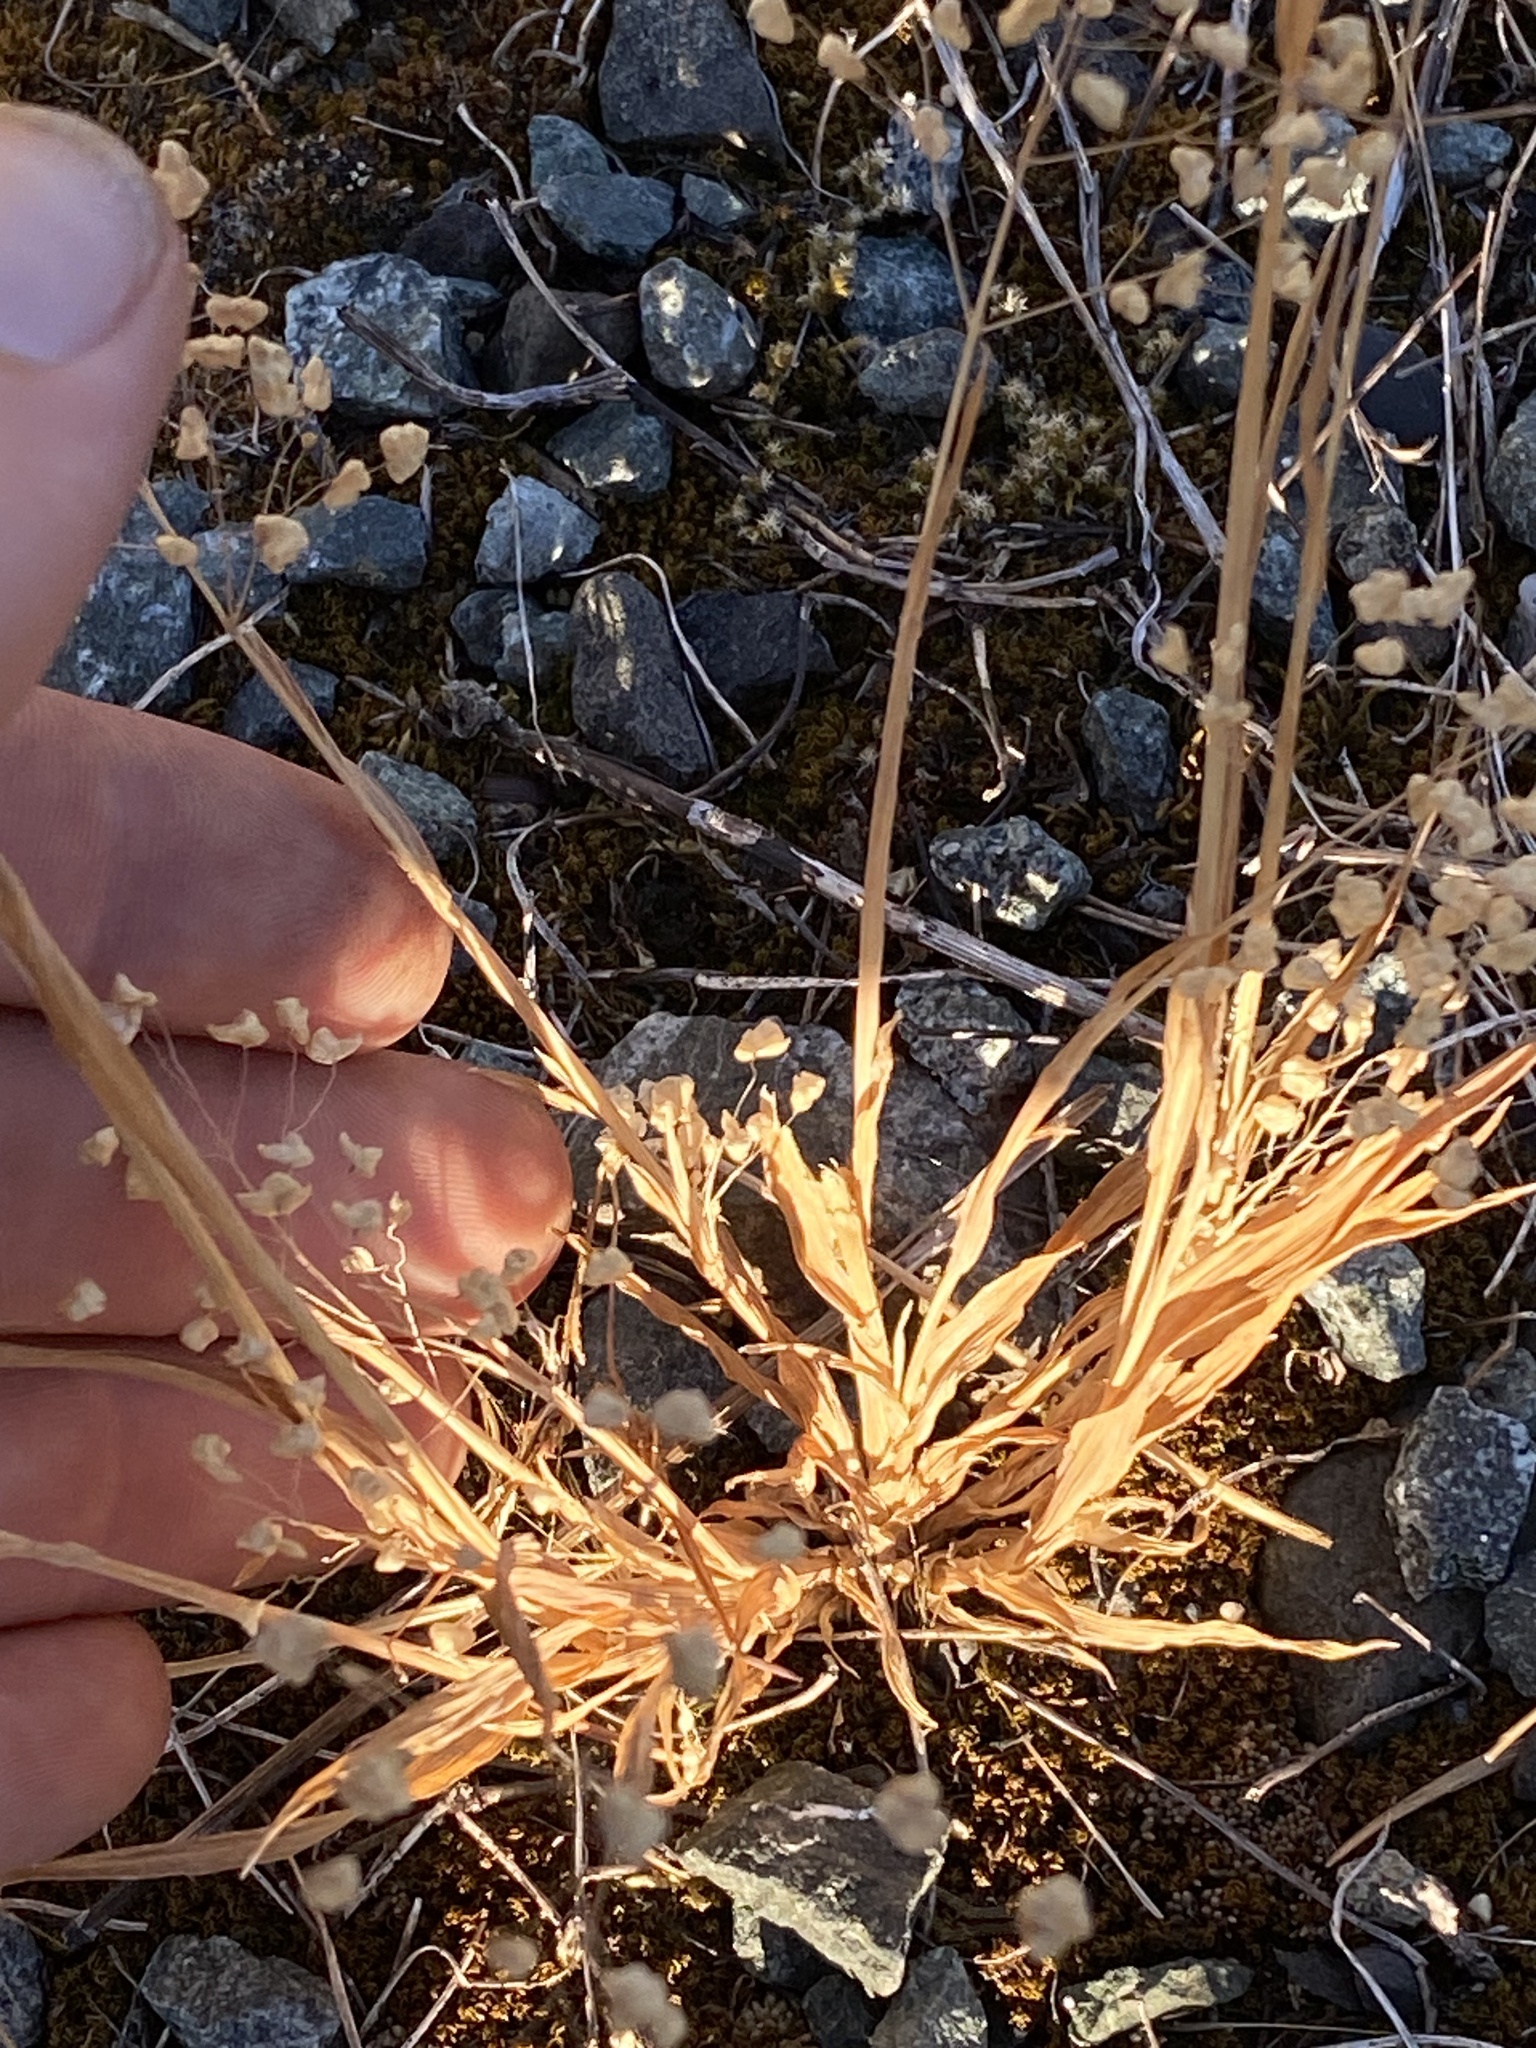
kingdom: Plantae
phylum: Tracheophyta
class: Liliopsida
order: Poales
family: Poaceae
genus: Briza
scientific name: Briza minor
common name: Lesser quaking-grass
